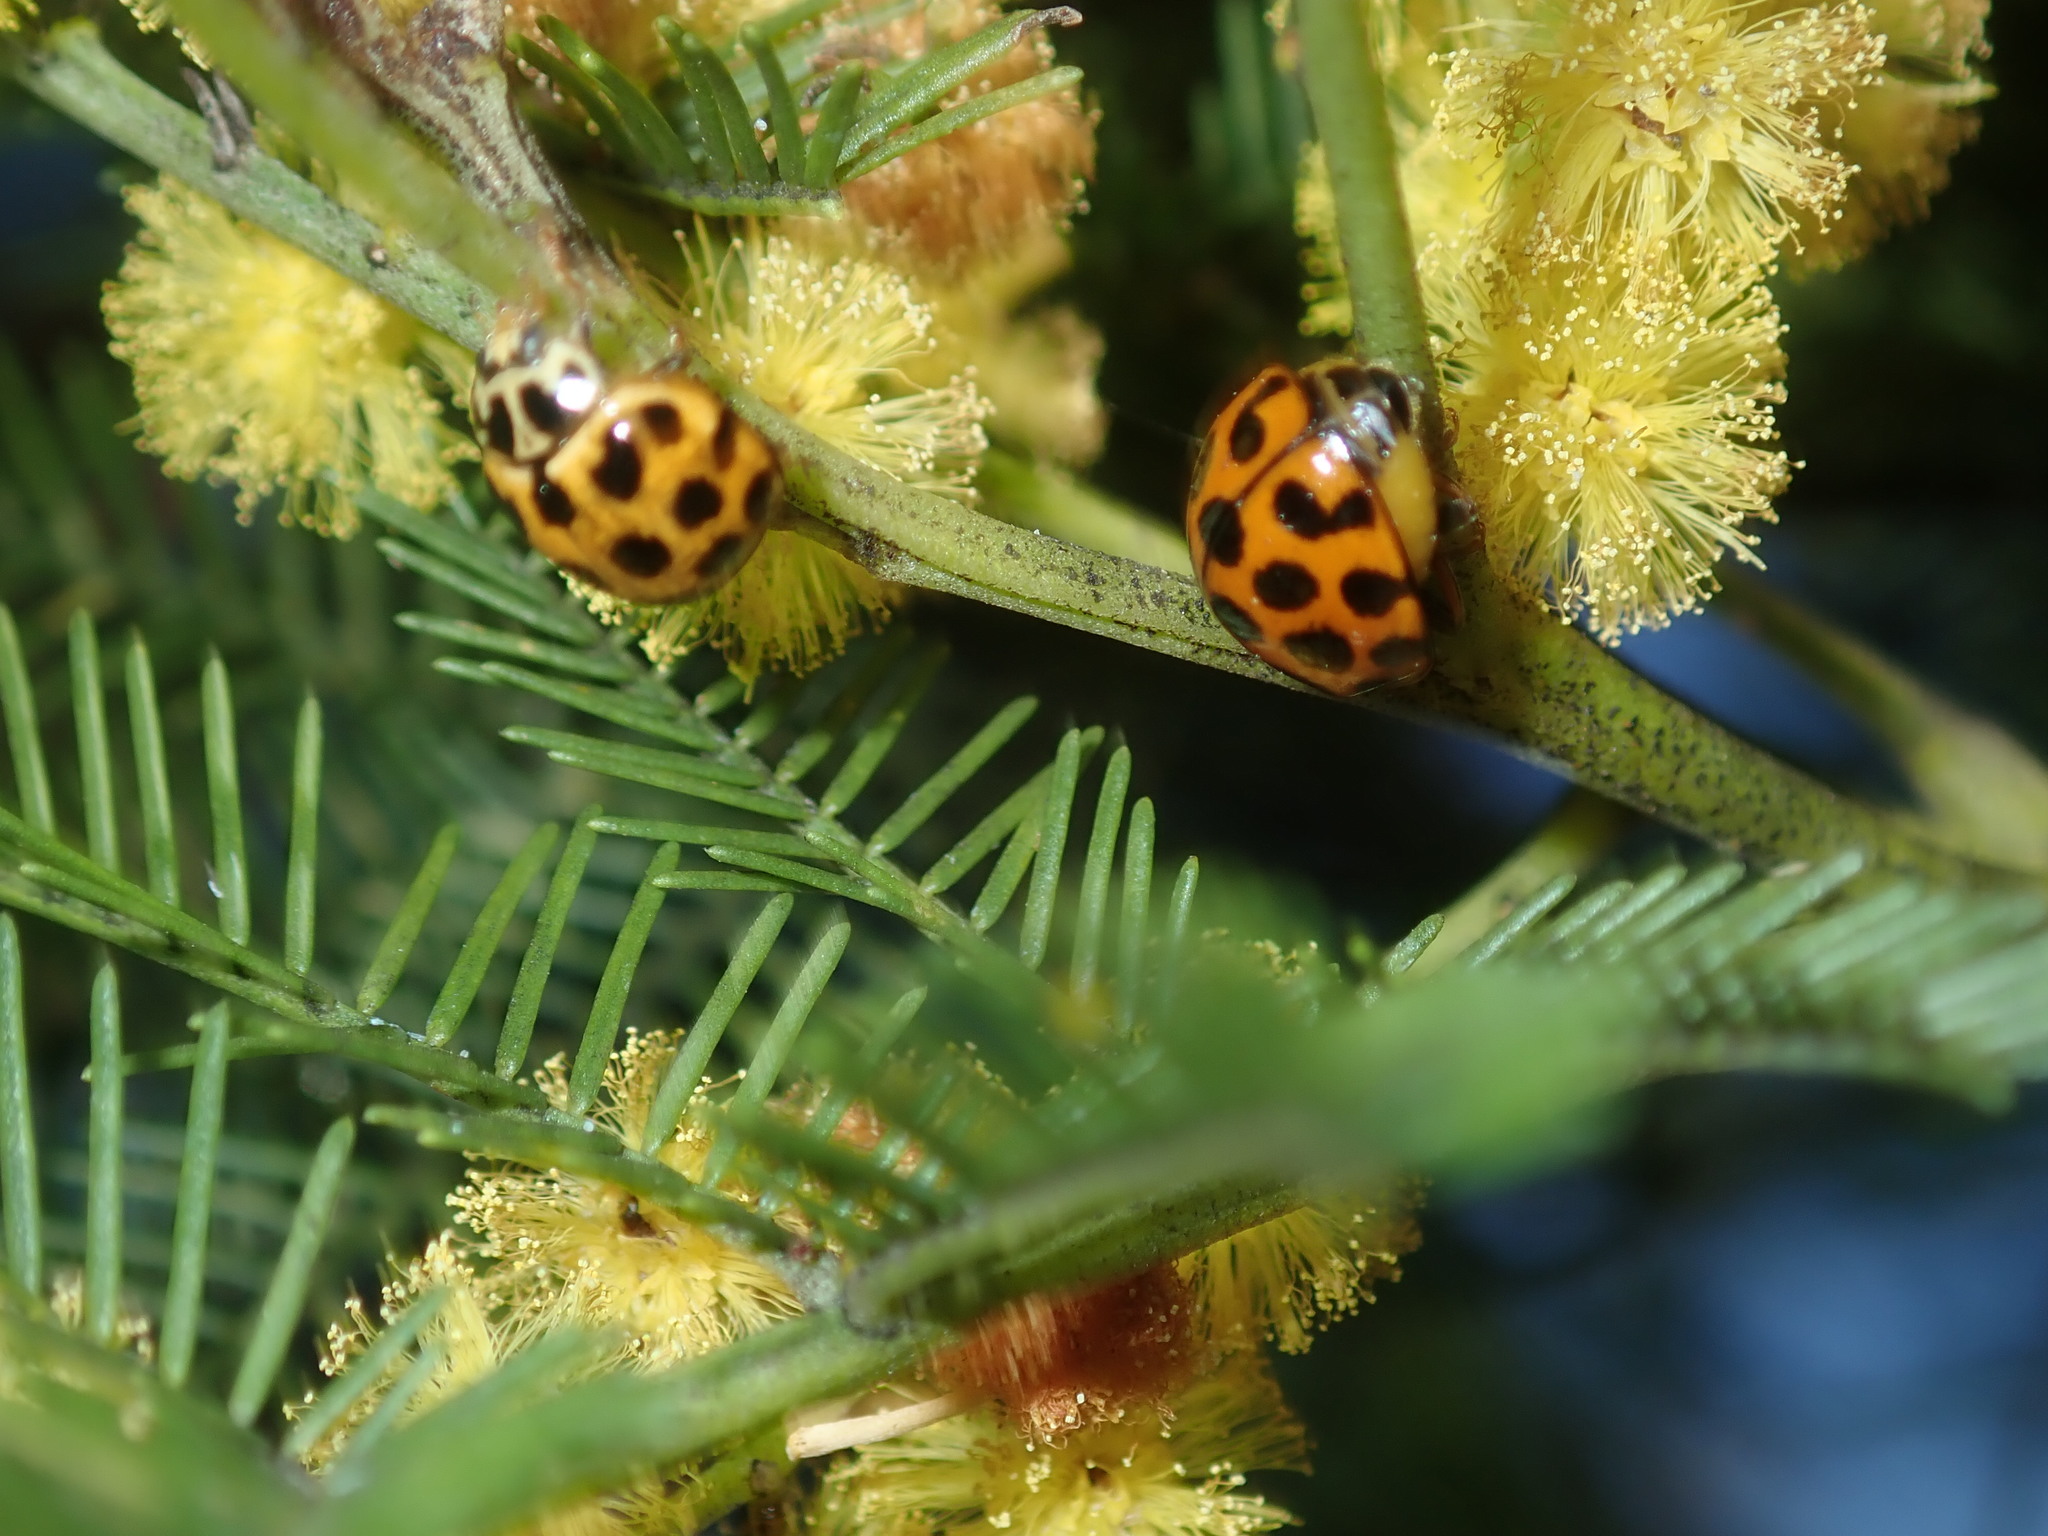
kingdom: Animalia
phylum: Arthropoda
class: Insecta
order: Coleoptera
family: Coccinellidae
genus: Harmonia
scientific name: Harmonia conformis
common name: Common spotted ladybird beetle
